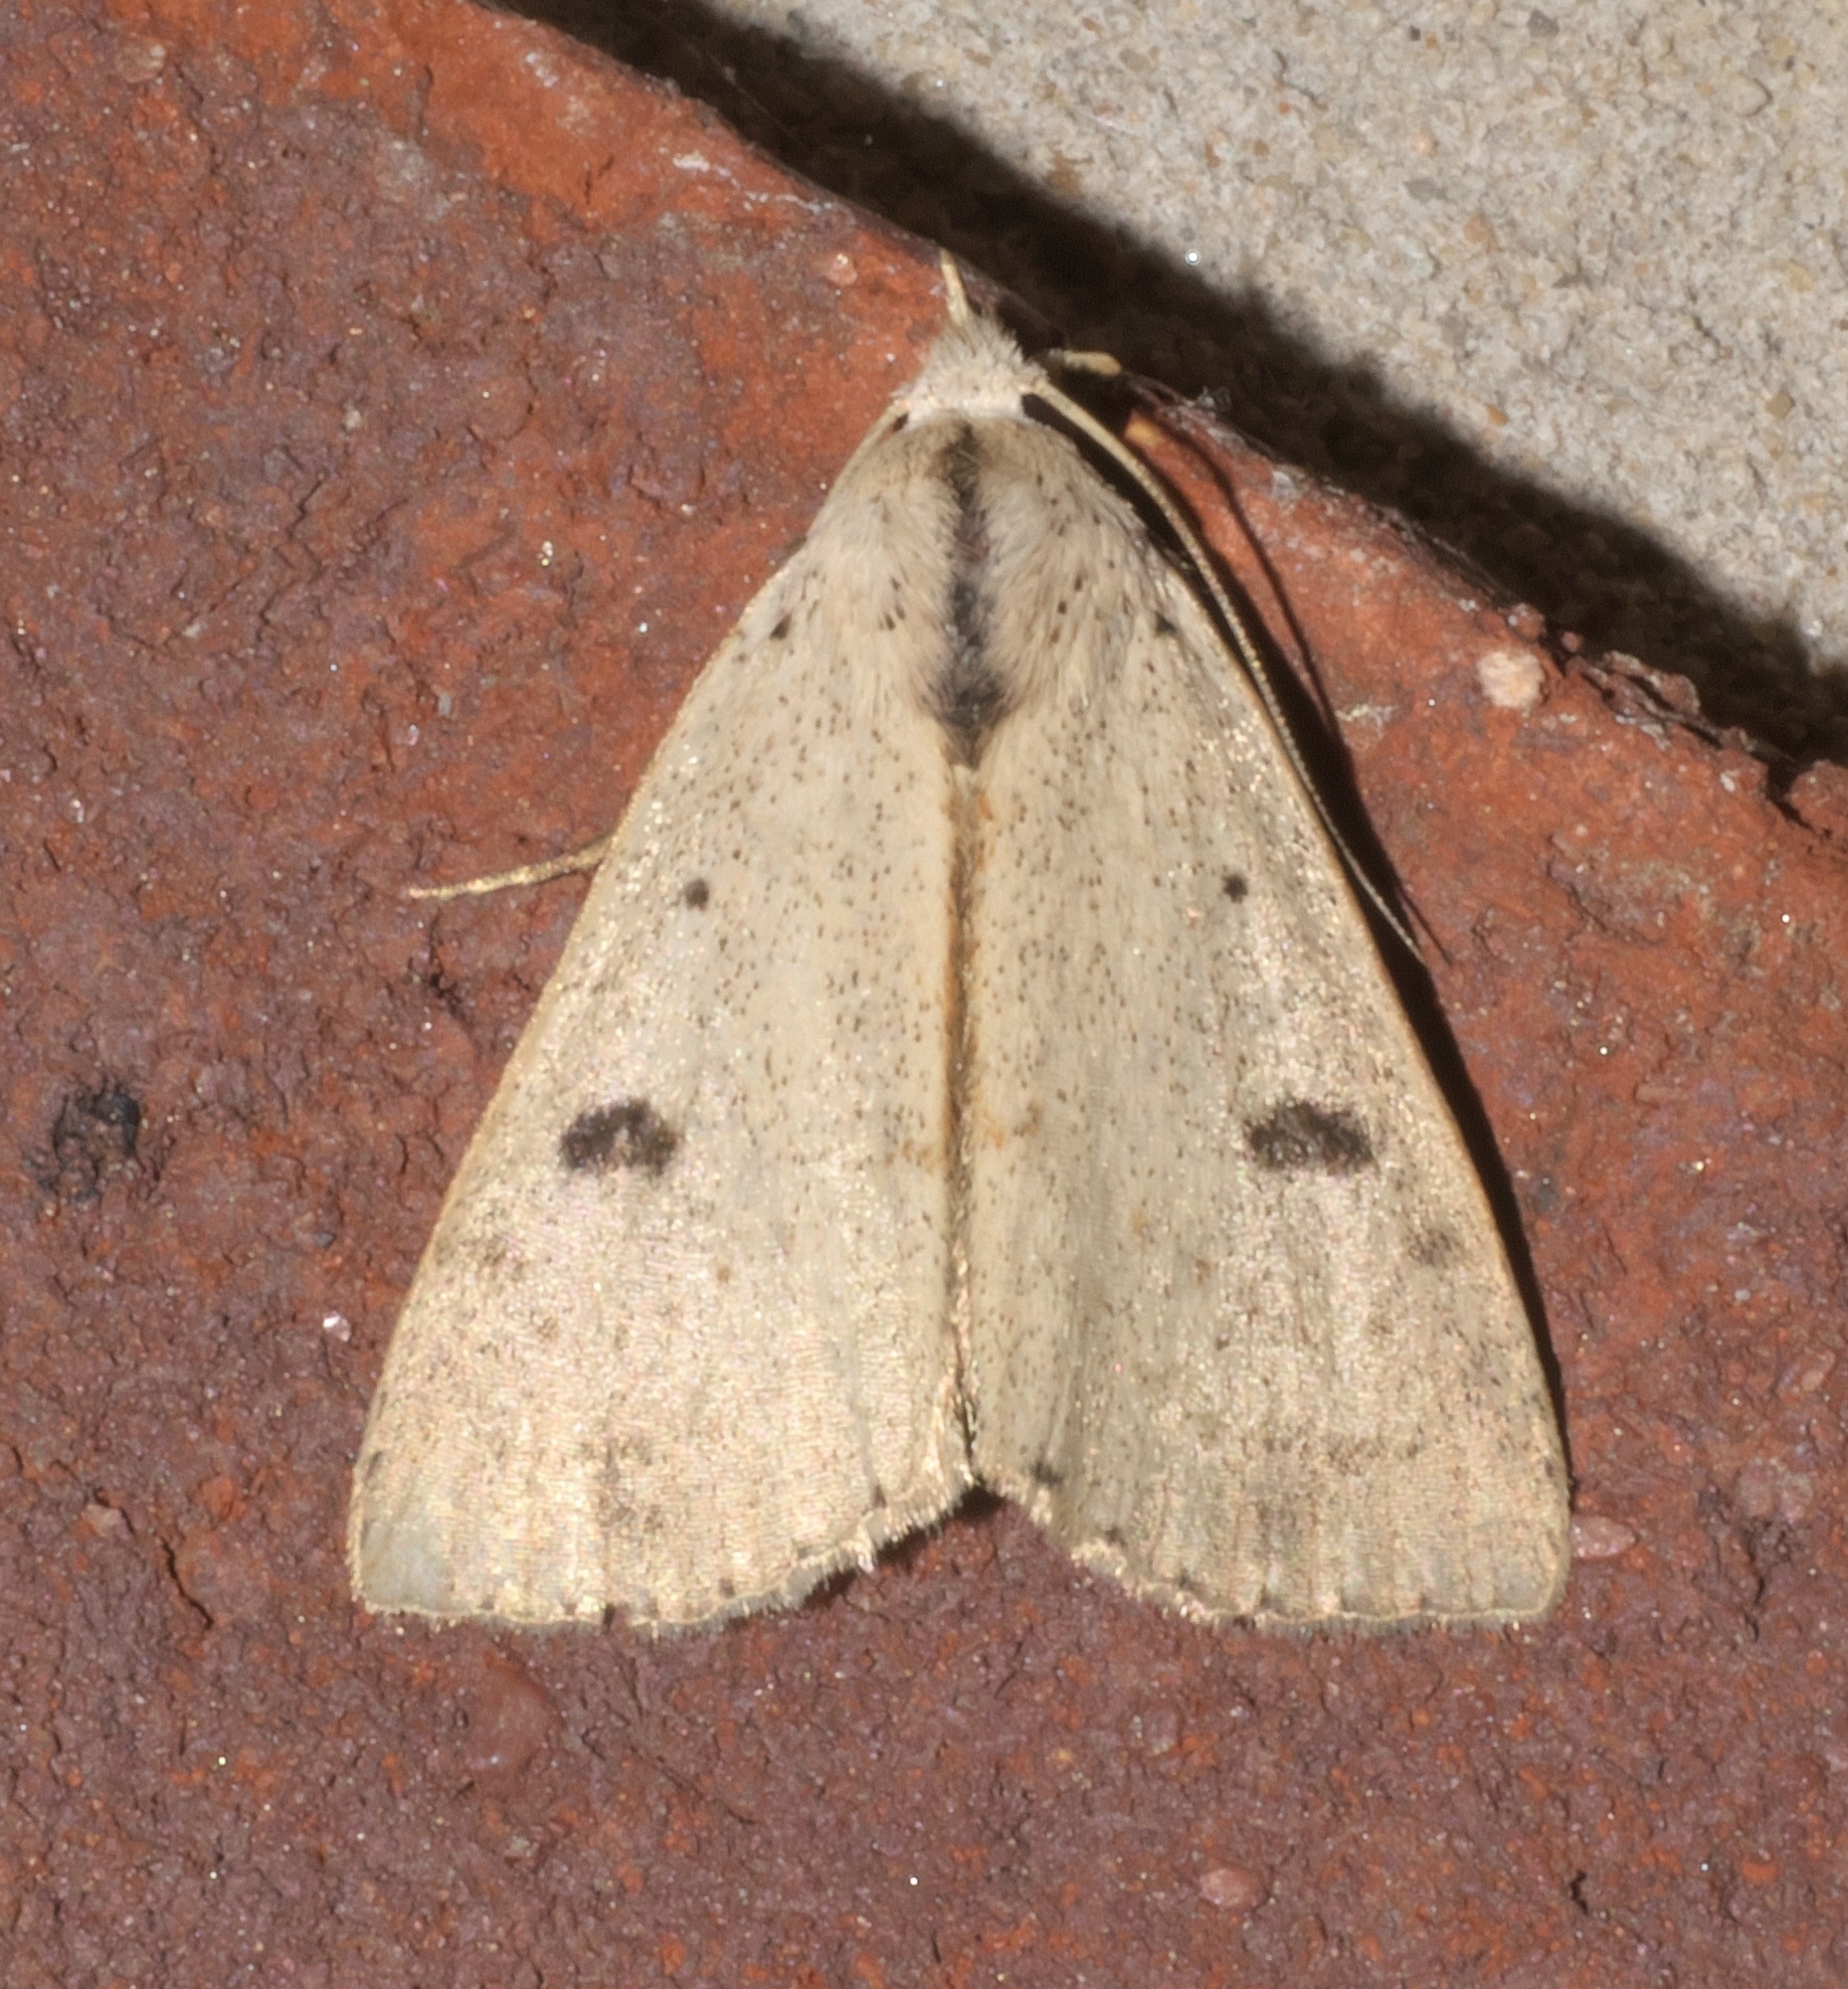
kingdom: Animalia
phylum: Arthropoda
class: Insecta
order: Lepidoptera
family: Erebidae
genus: Scolecocampa
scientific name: Scolecocampa liburna
